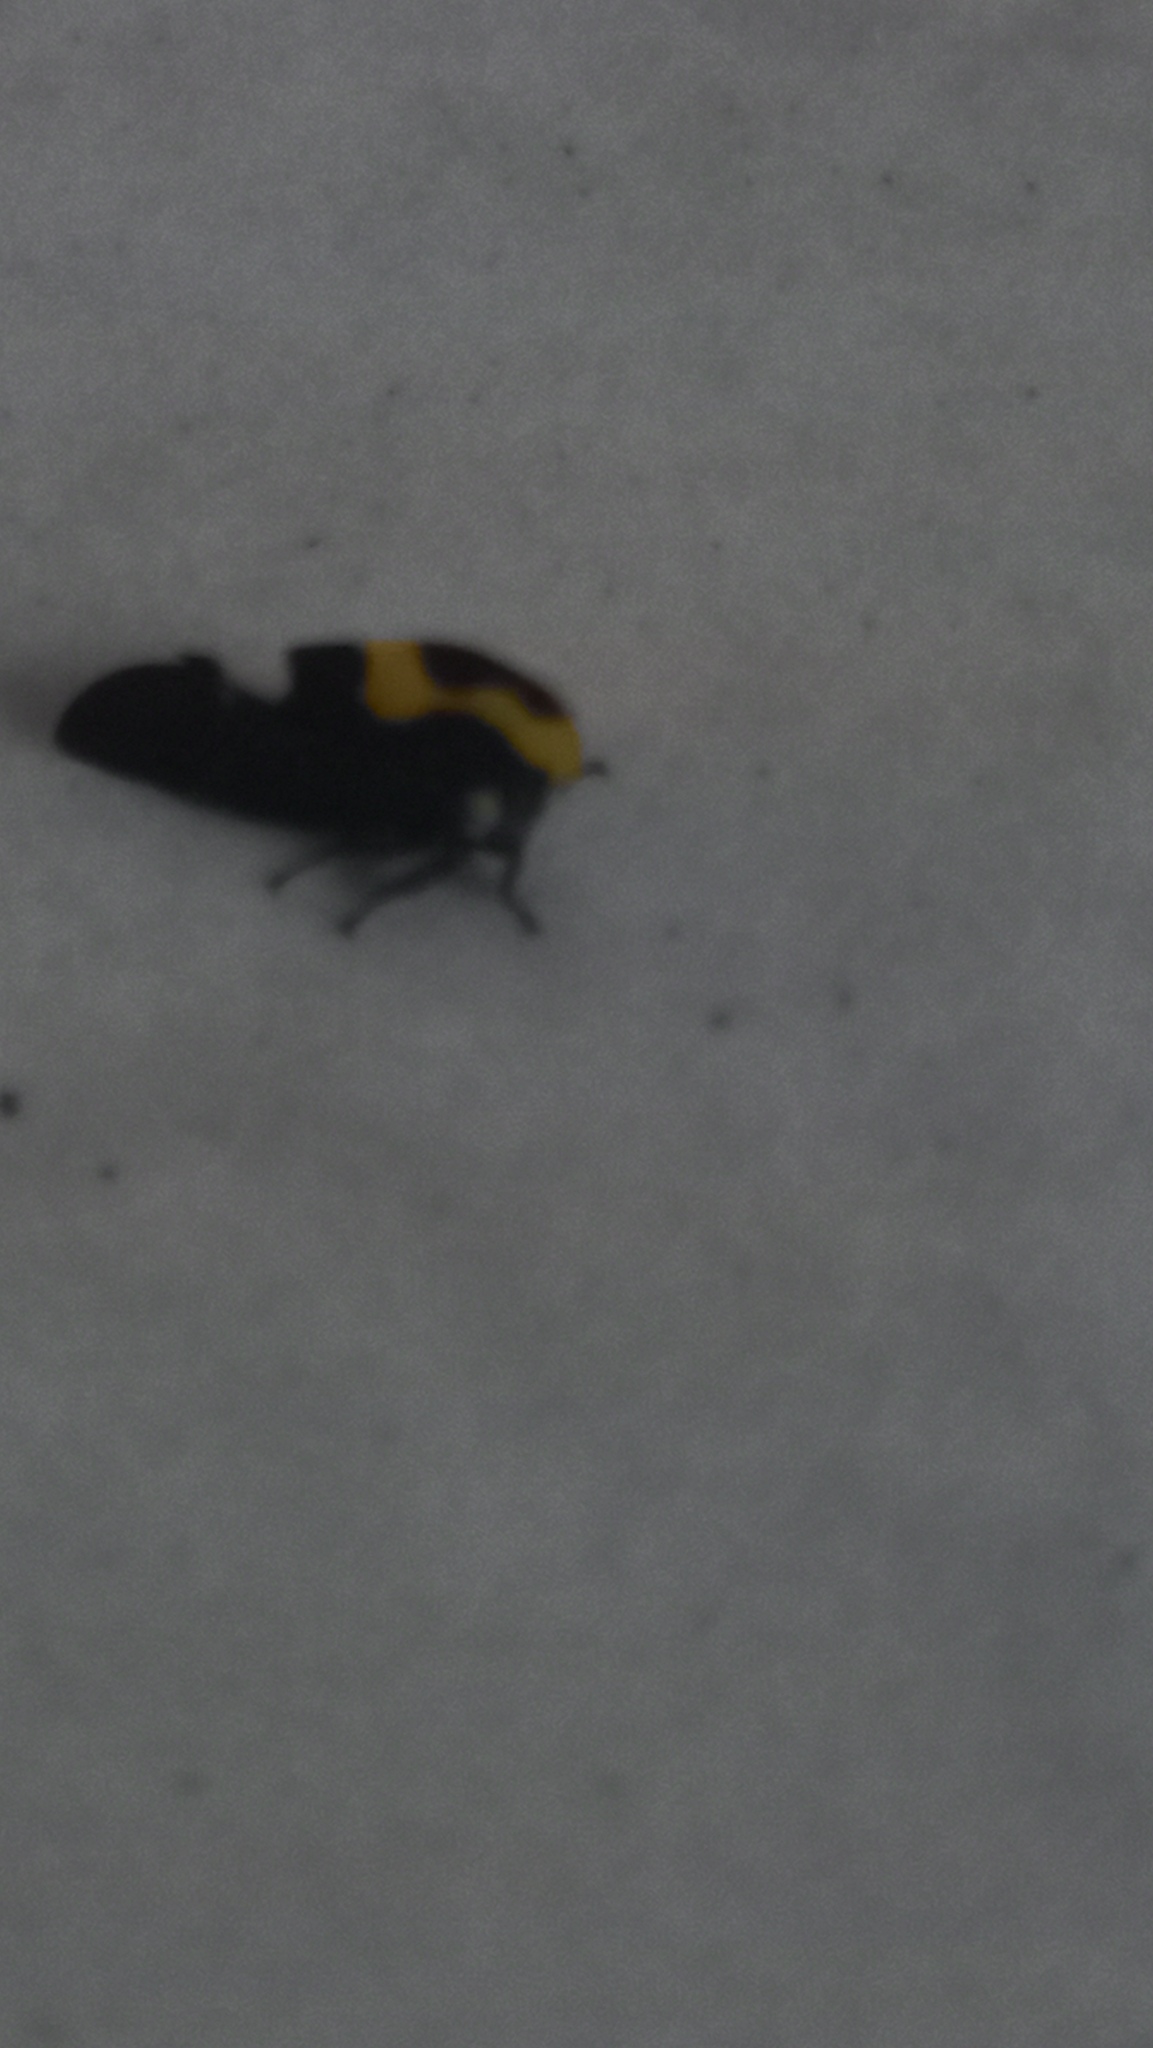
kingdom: Animalia
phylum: Arthropoda
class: Insecta
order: Hemiptera
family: Membracidae
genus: Membracis
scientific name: Membracis mexicana
